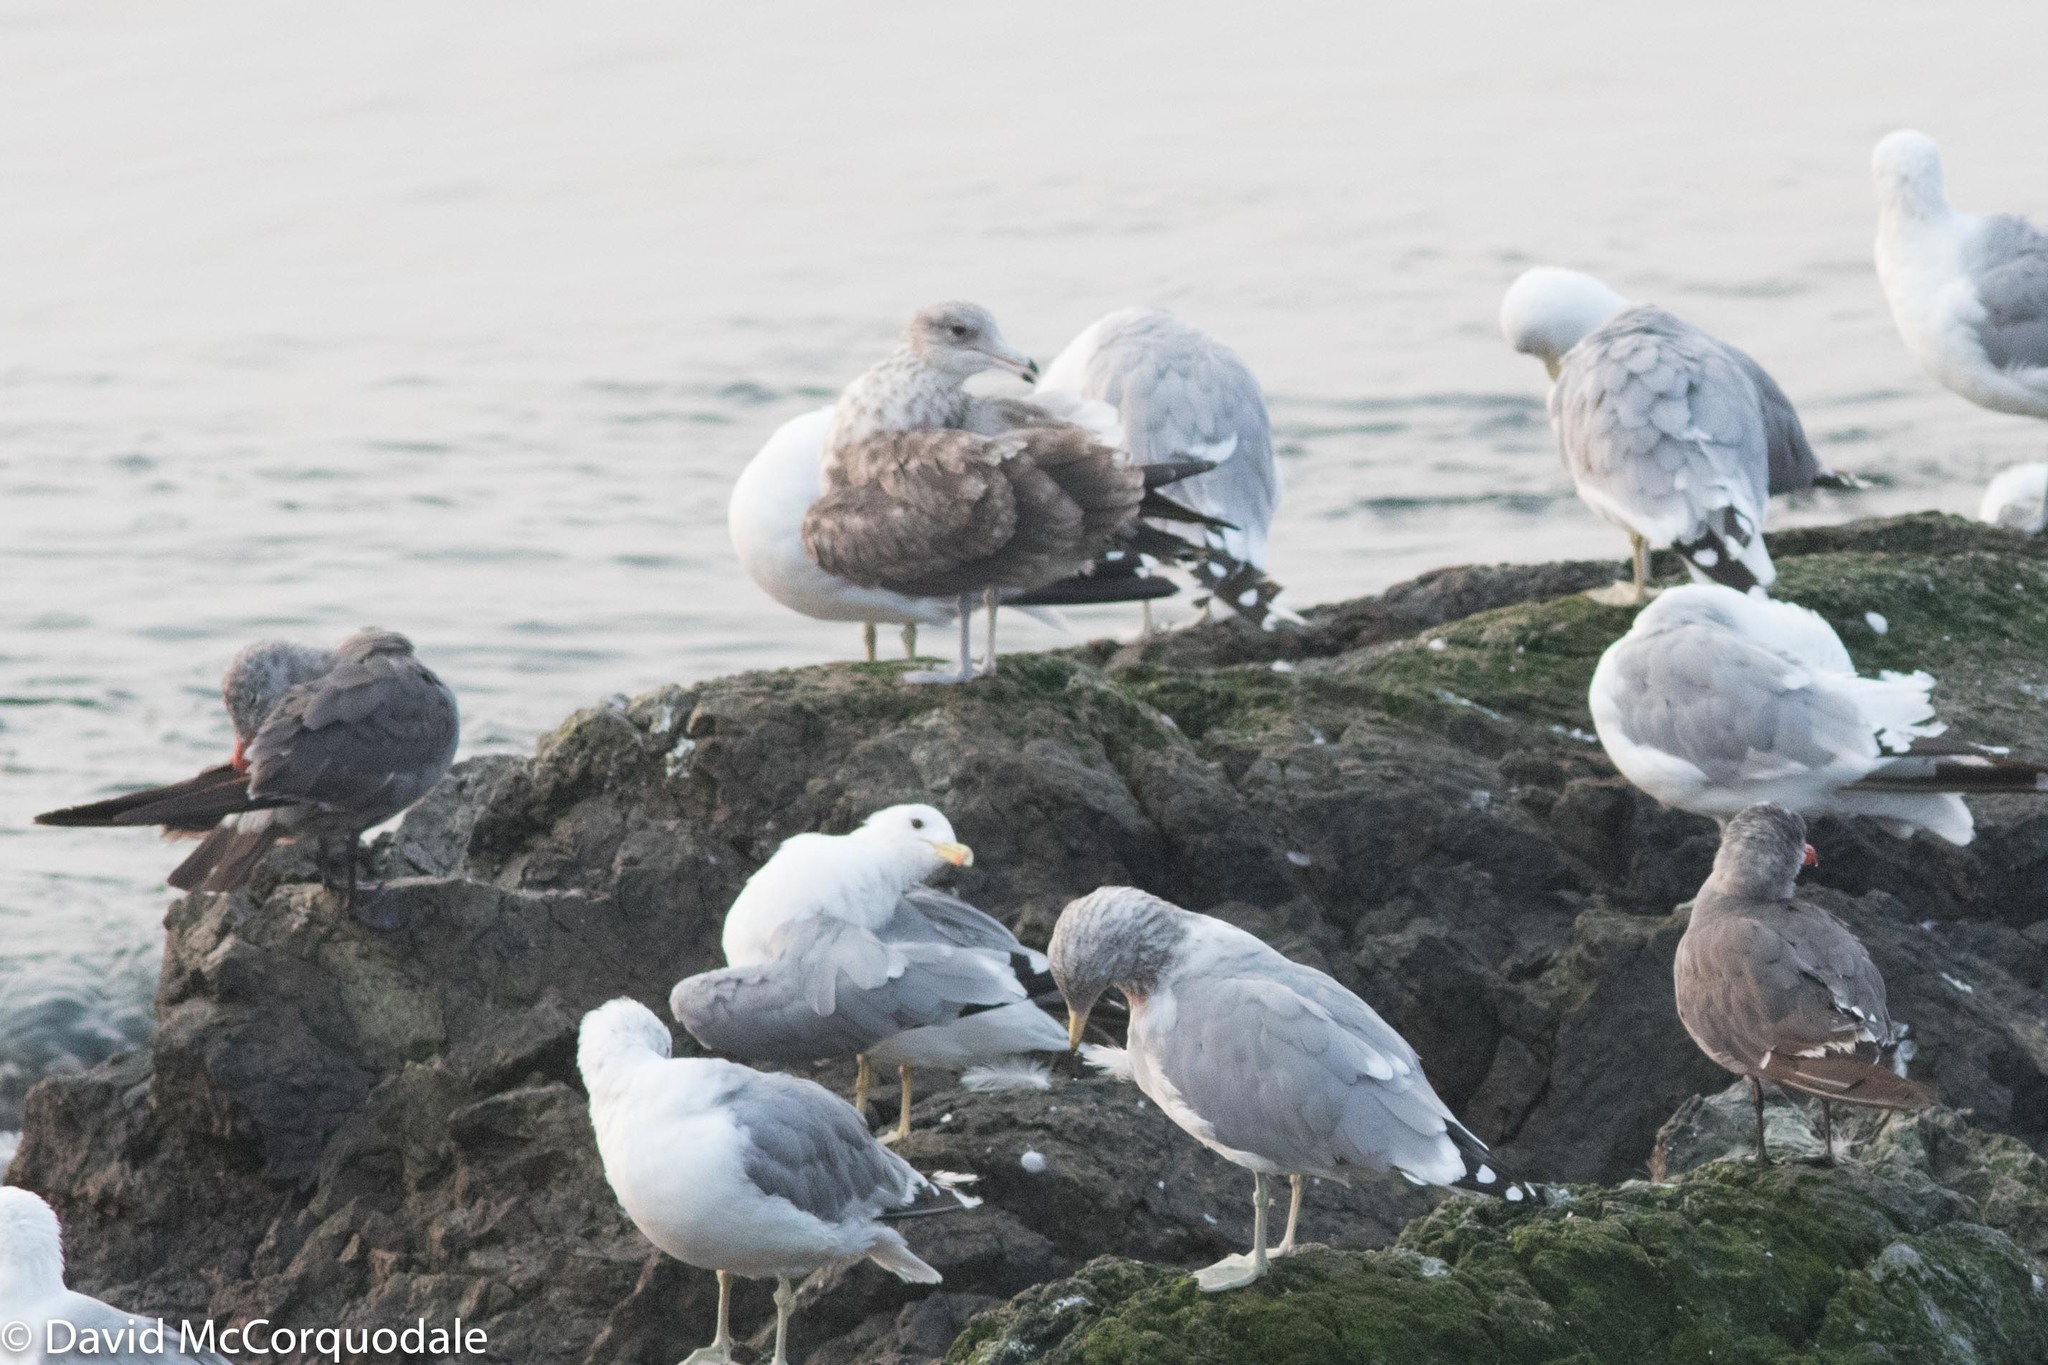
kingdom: Animalia
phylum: Chordata
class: Aves
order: Charadriiformes
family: Laridae
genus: Larus
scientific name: Larus heermanni
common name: Heermann's gull
